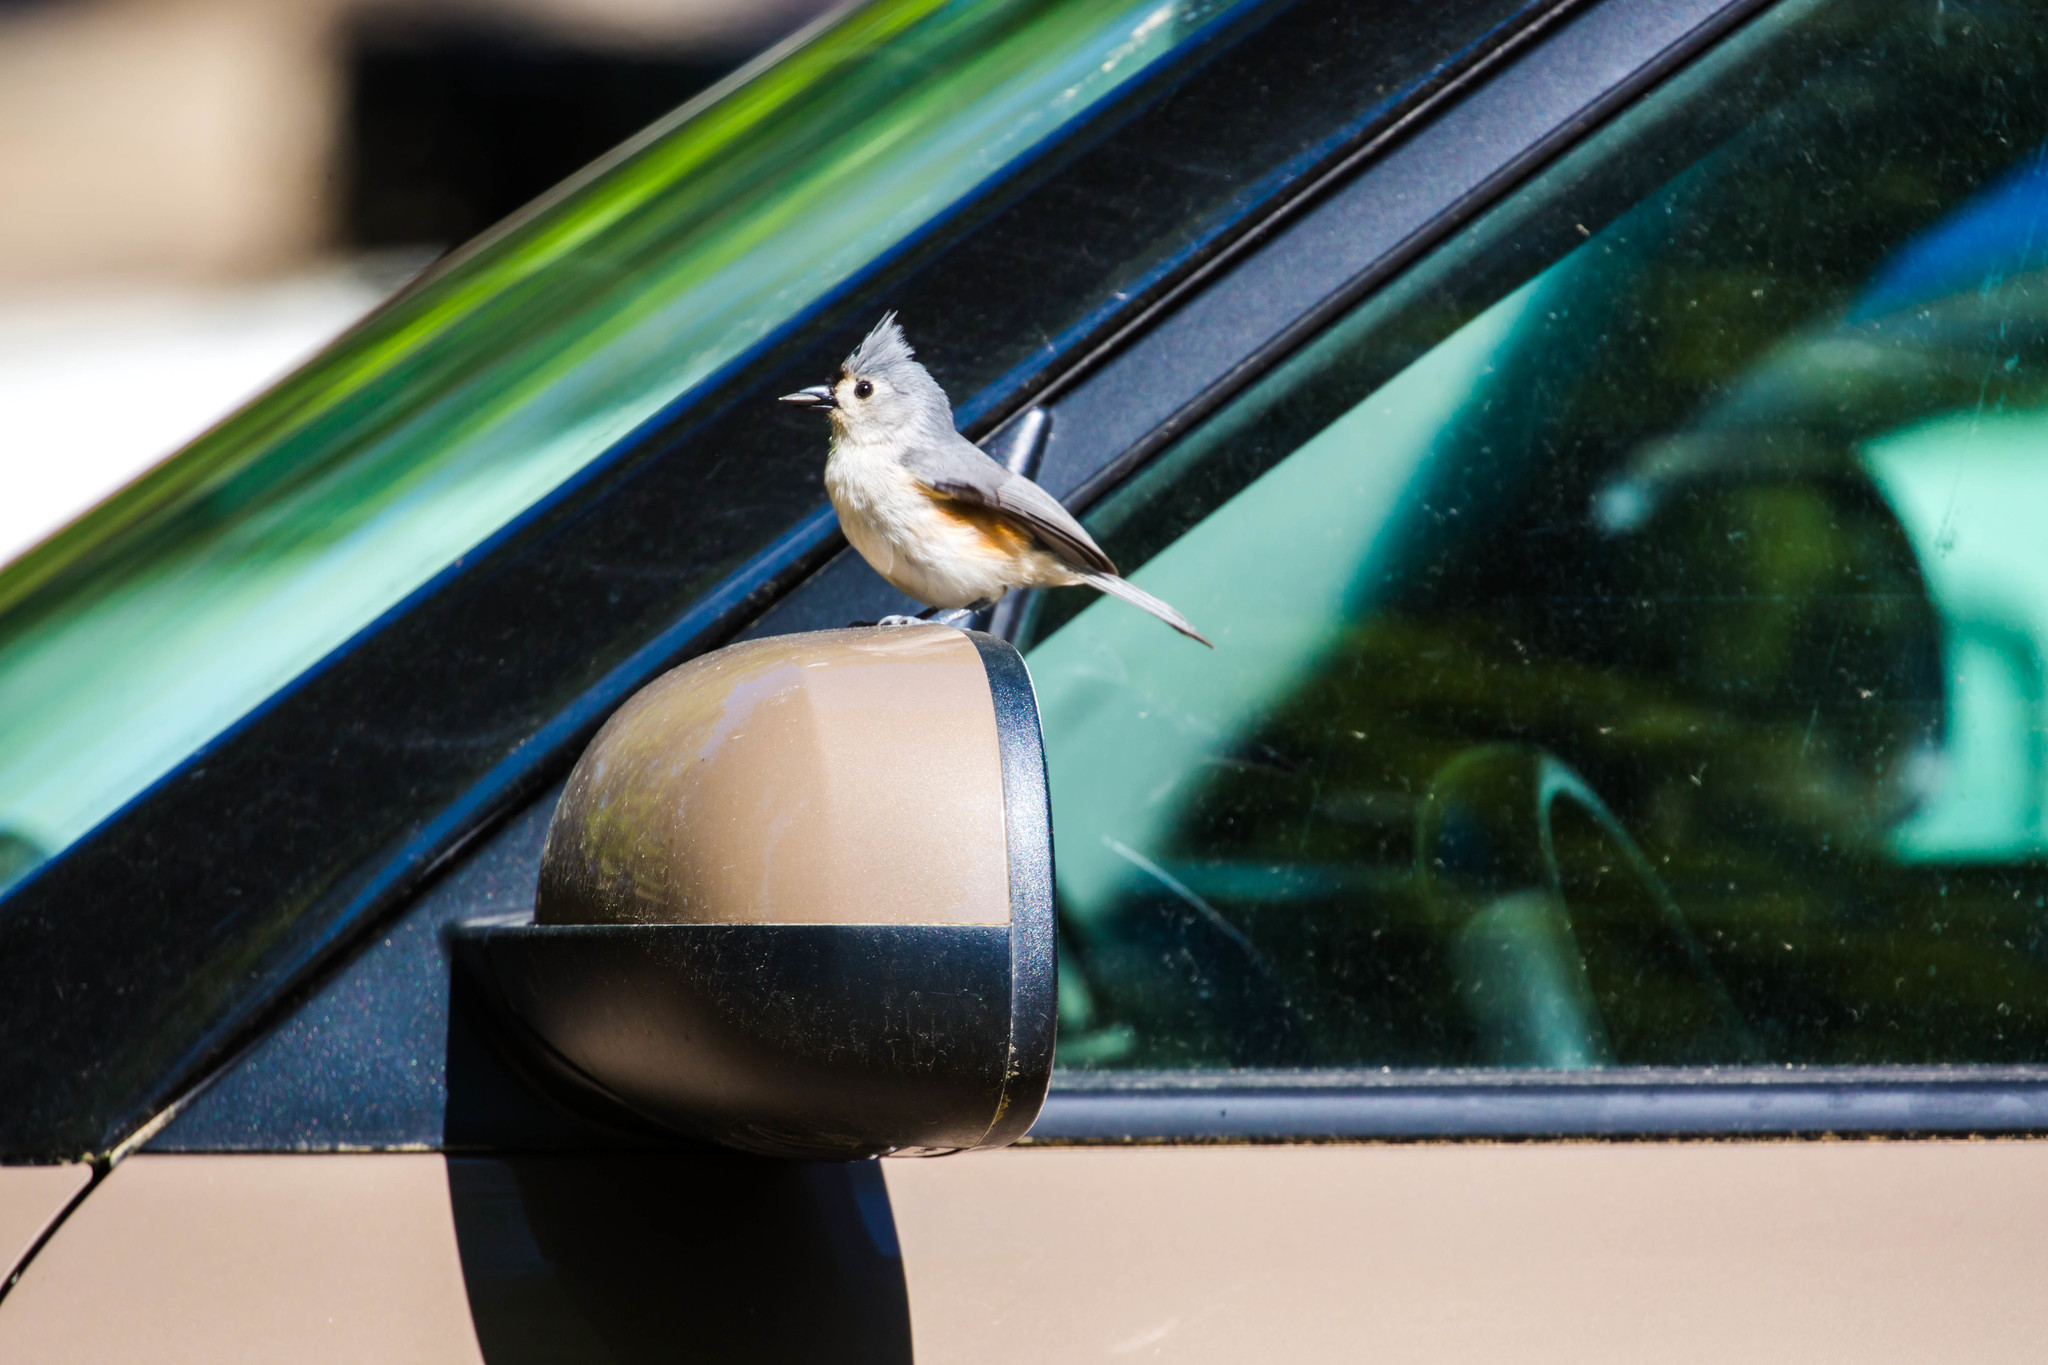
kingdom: Animalia
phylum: Chordata
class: Aves
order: Passeriformes
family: Paridae
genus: Baeolophus
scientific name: Baeolophus bicolor
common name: Tufted titmouse
